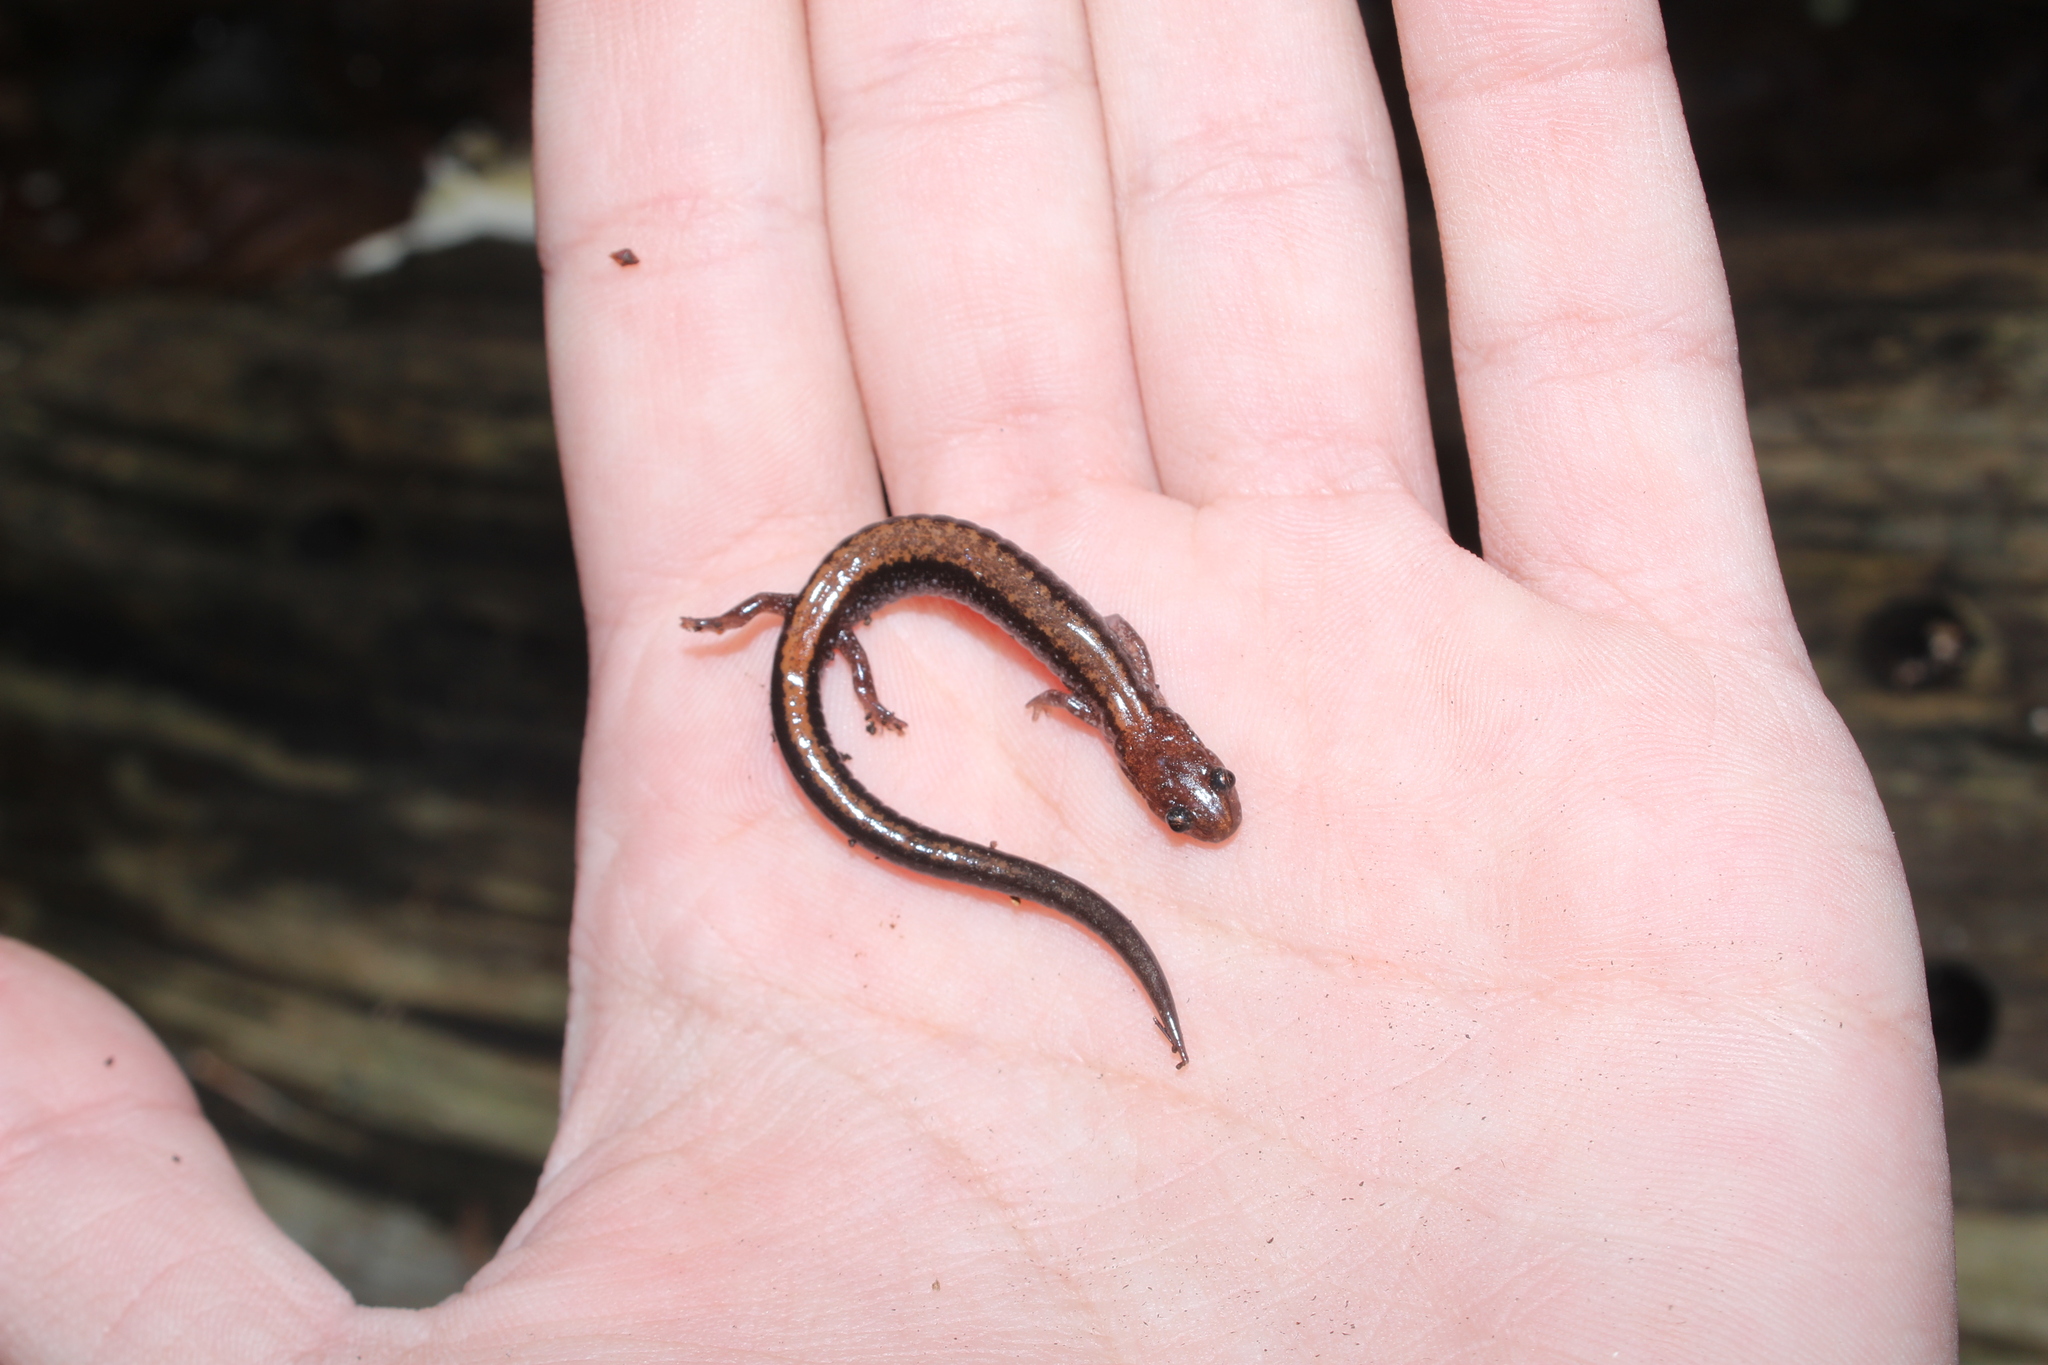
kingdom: Animalia
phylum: Chordata
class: Amphibia
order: Caudata
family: Plethodontidae
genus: Plethodon
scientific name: Plethodon cinereus
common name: Redback salamander
